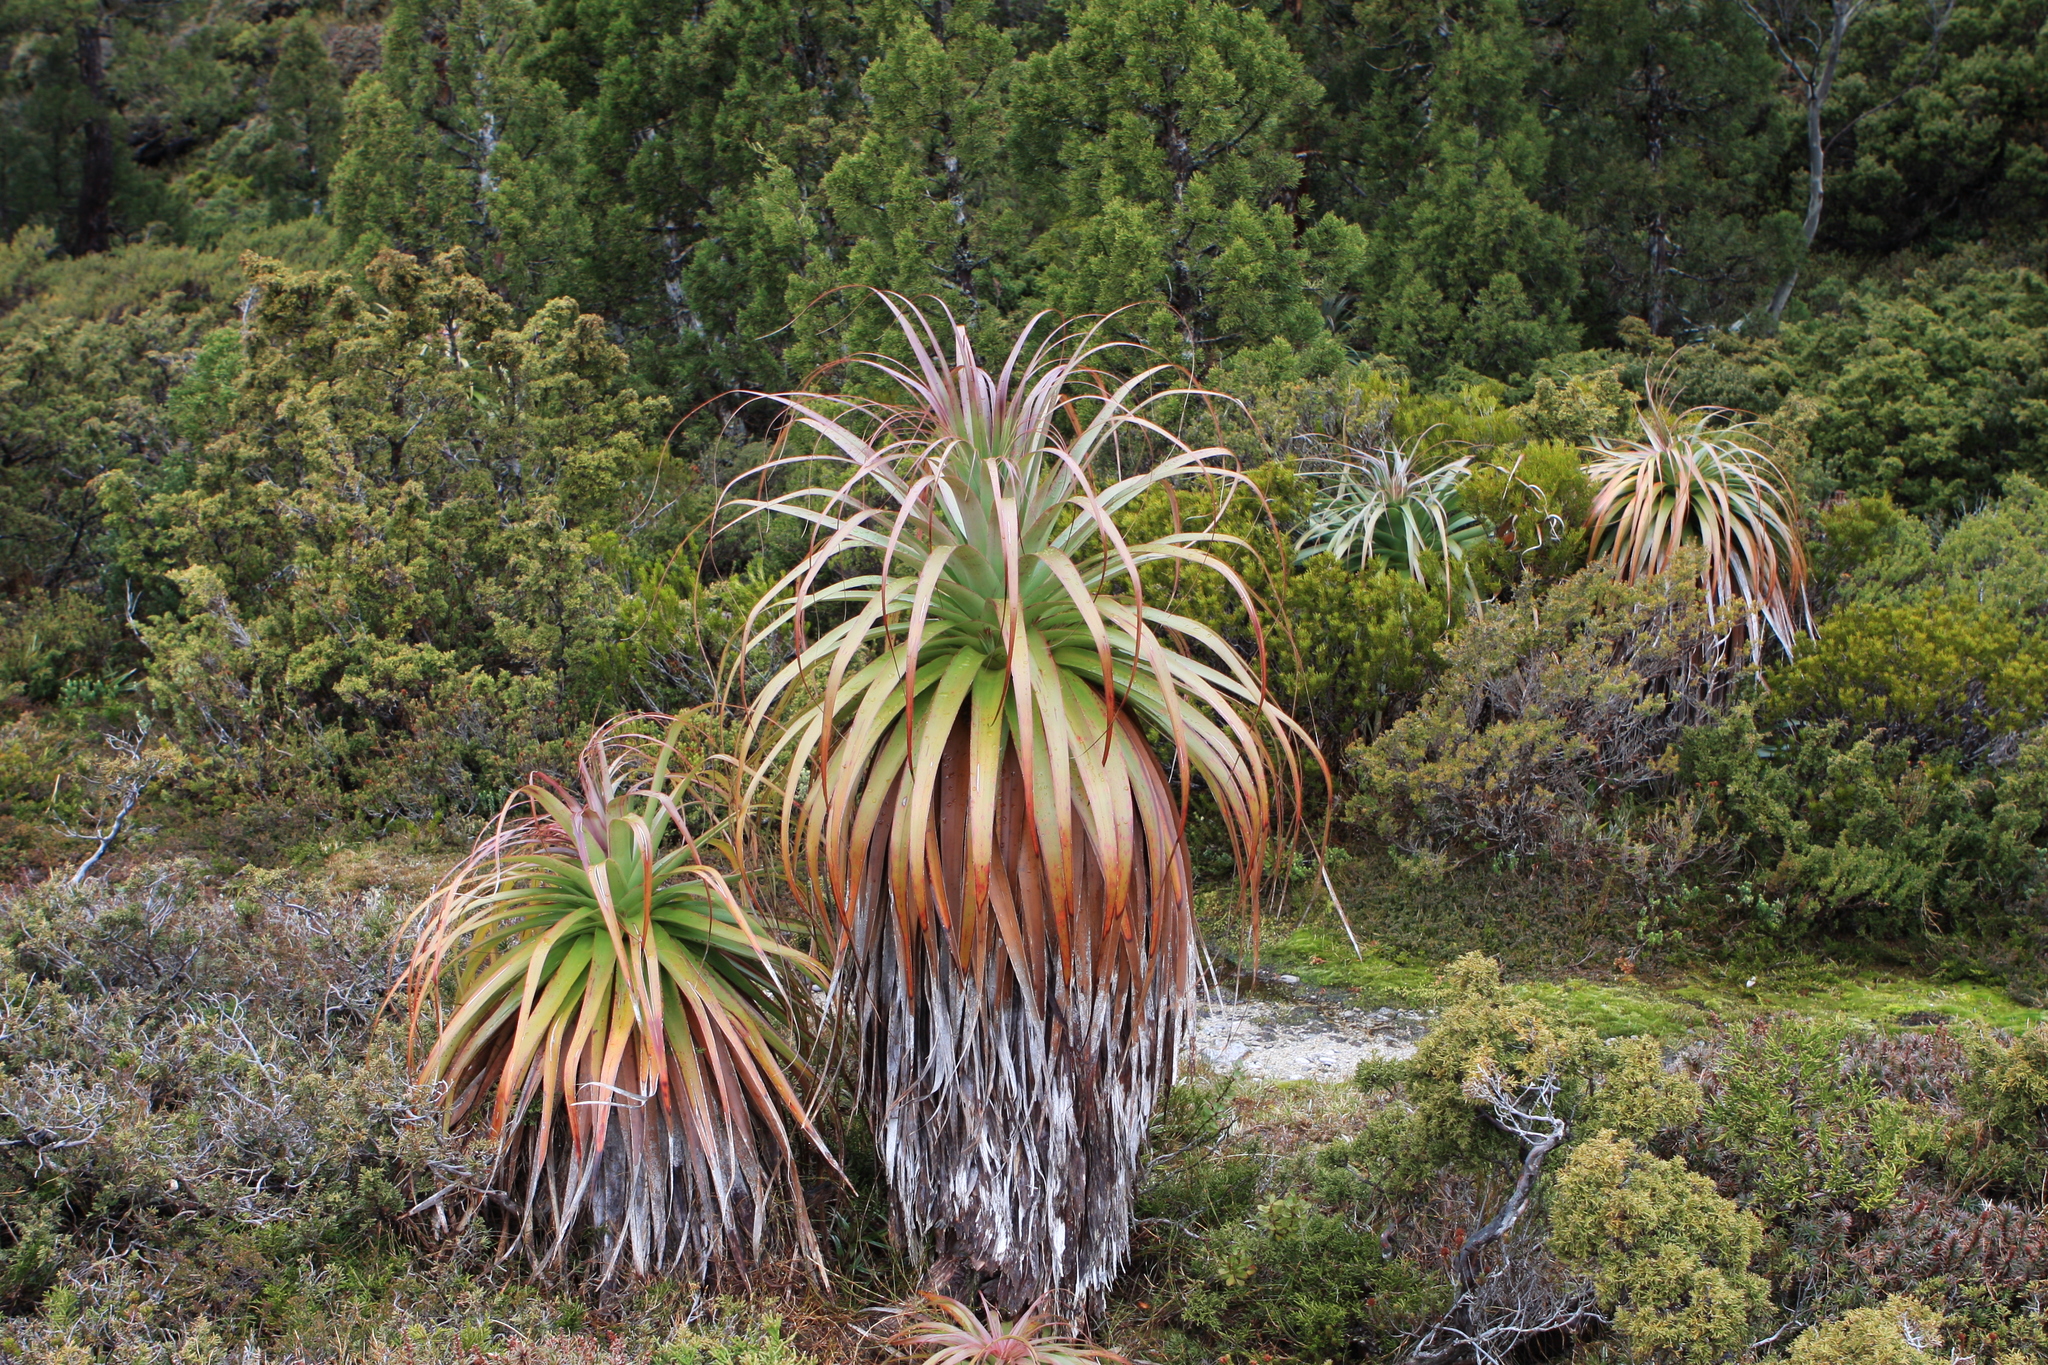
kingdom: Plantae
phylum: Tracheophyta
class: Magnoliopsida
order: Ericales
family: Ericaceae
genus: Dracophyllum
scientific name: Dracophyllum pandanifolium
